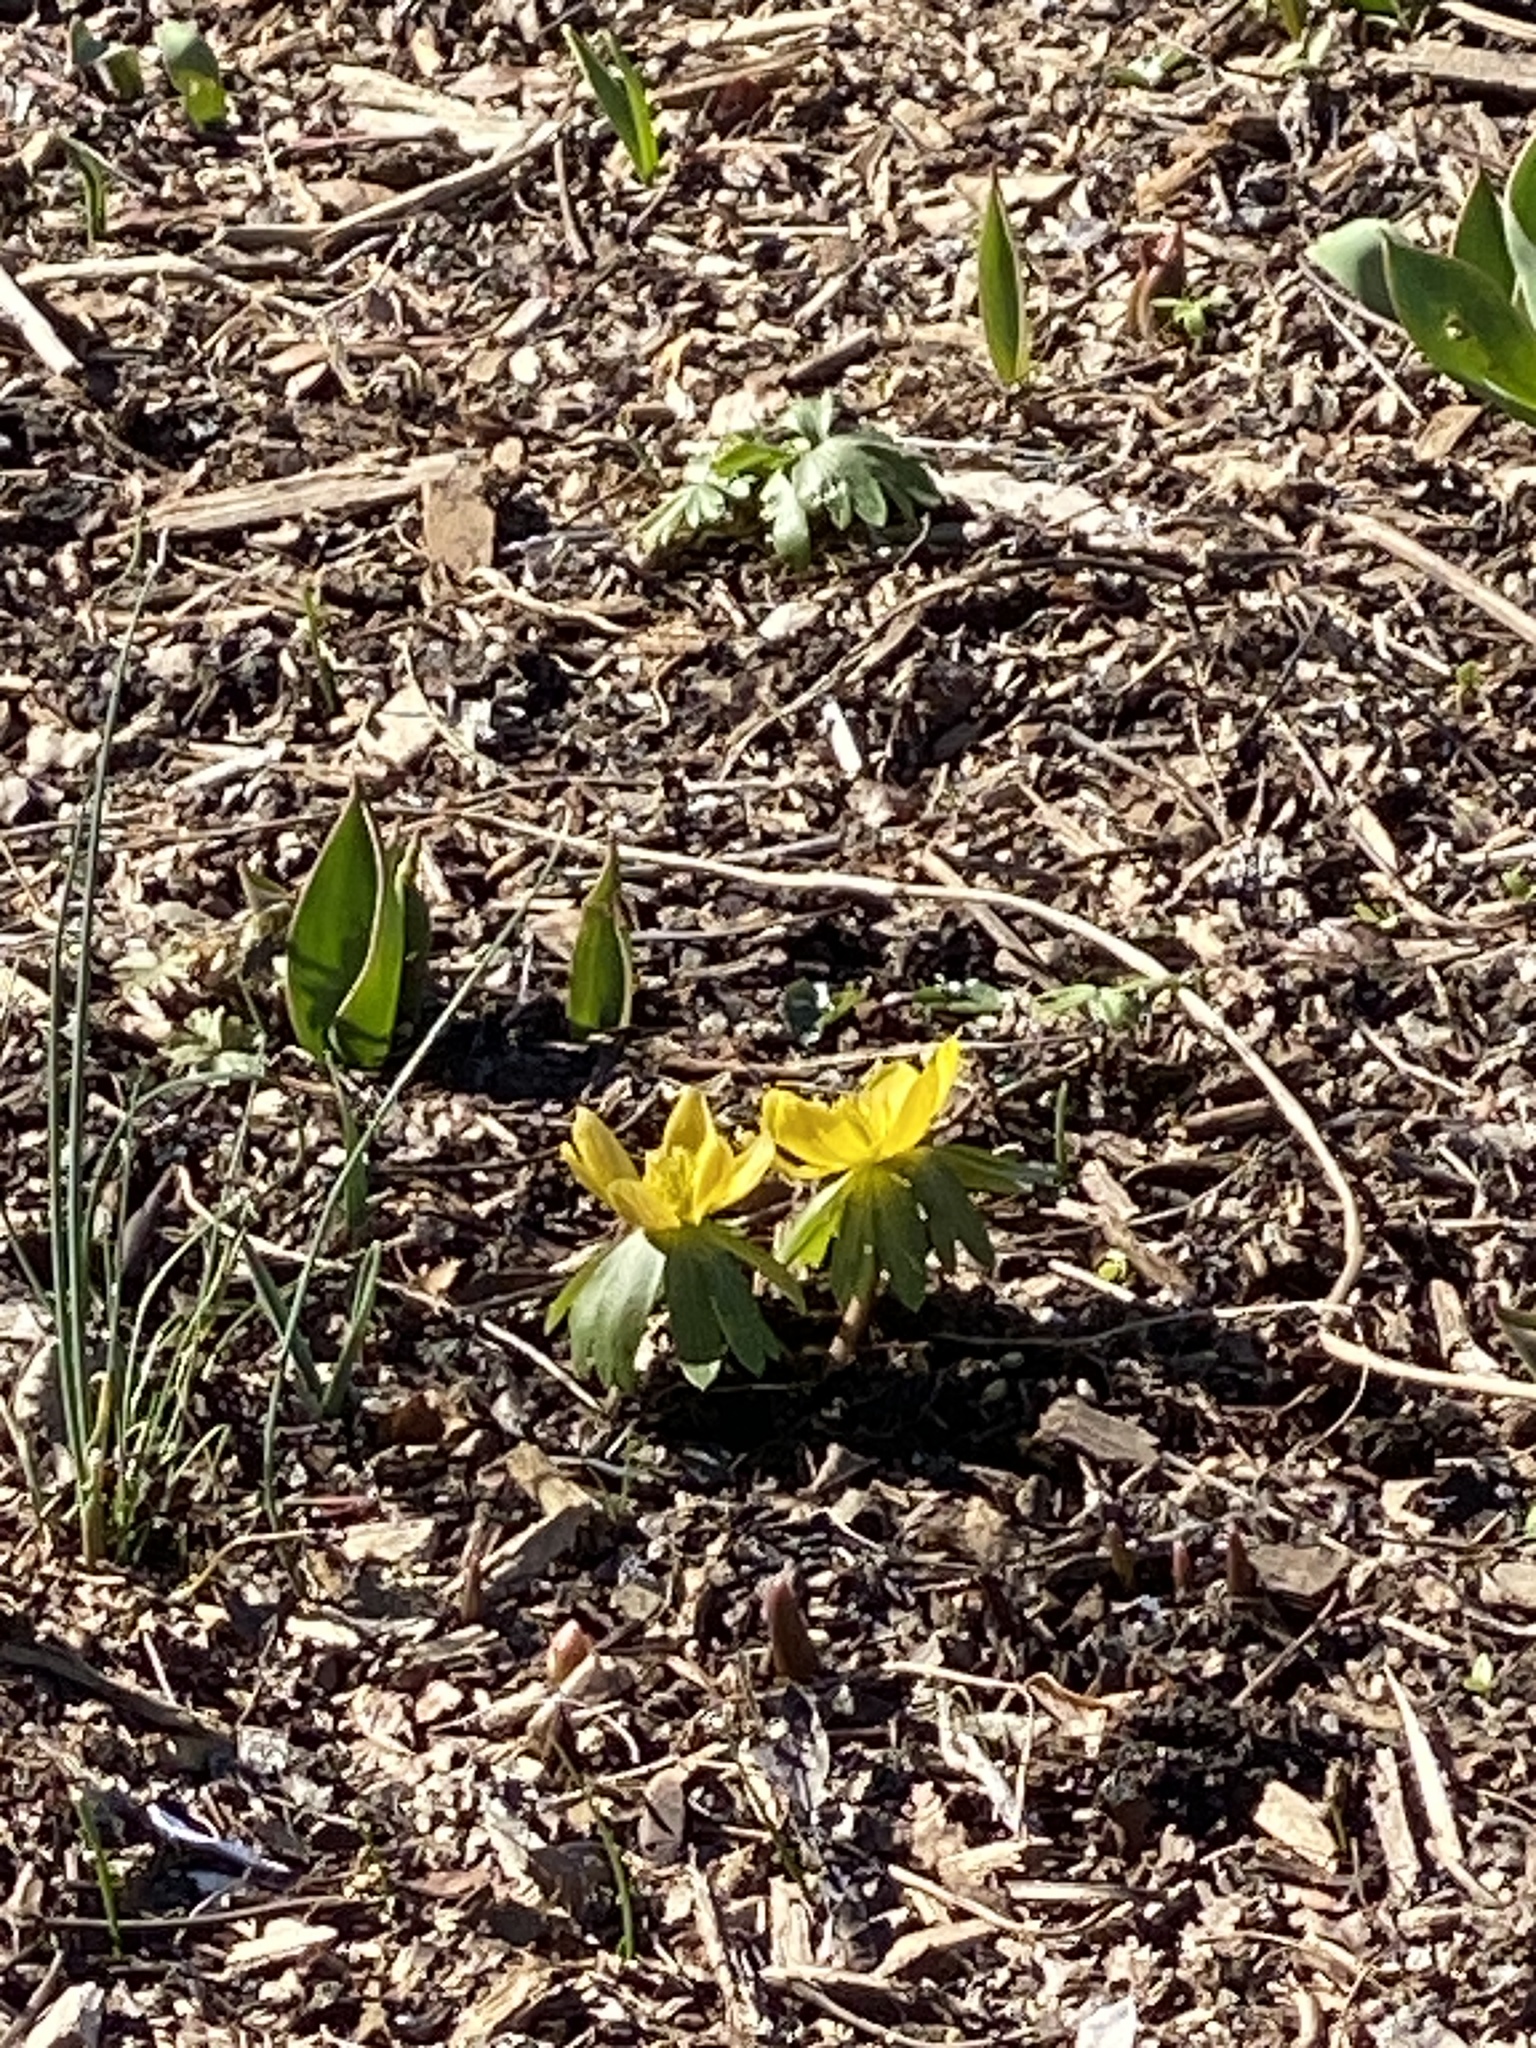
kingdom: Plantae
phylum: Tracheophyta
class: Magnoliopsida
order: Ranunculales
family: Ranunculaceae
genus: Eranthis
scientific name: Eranthis hyemalis
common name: Winter aconite
